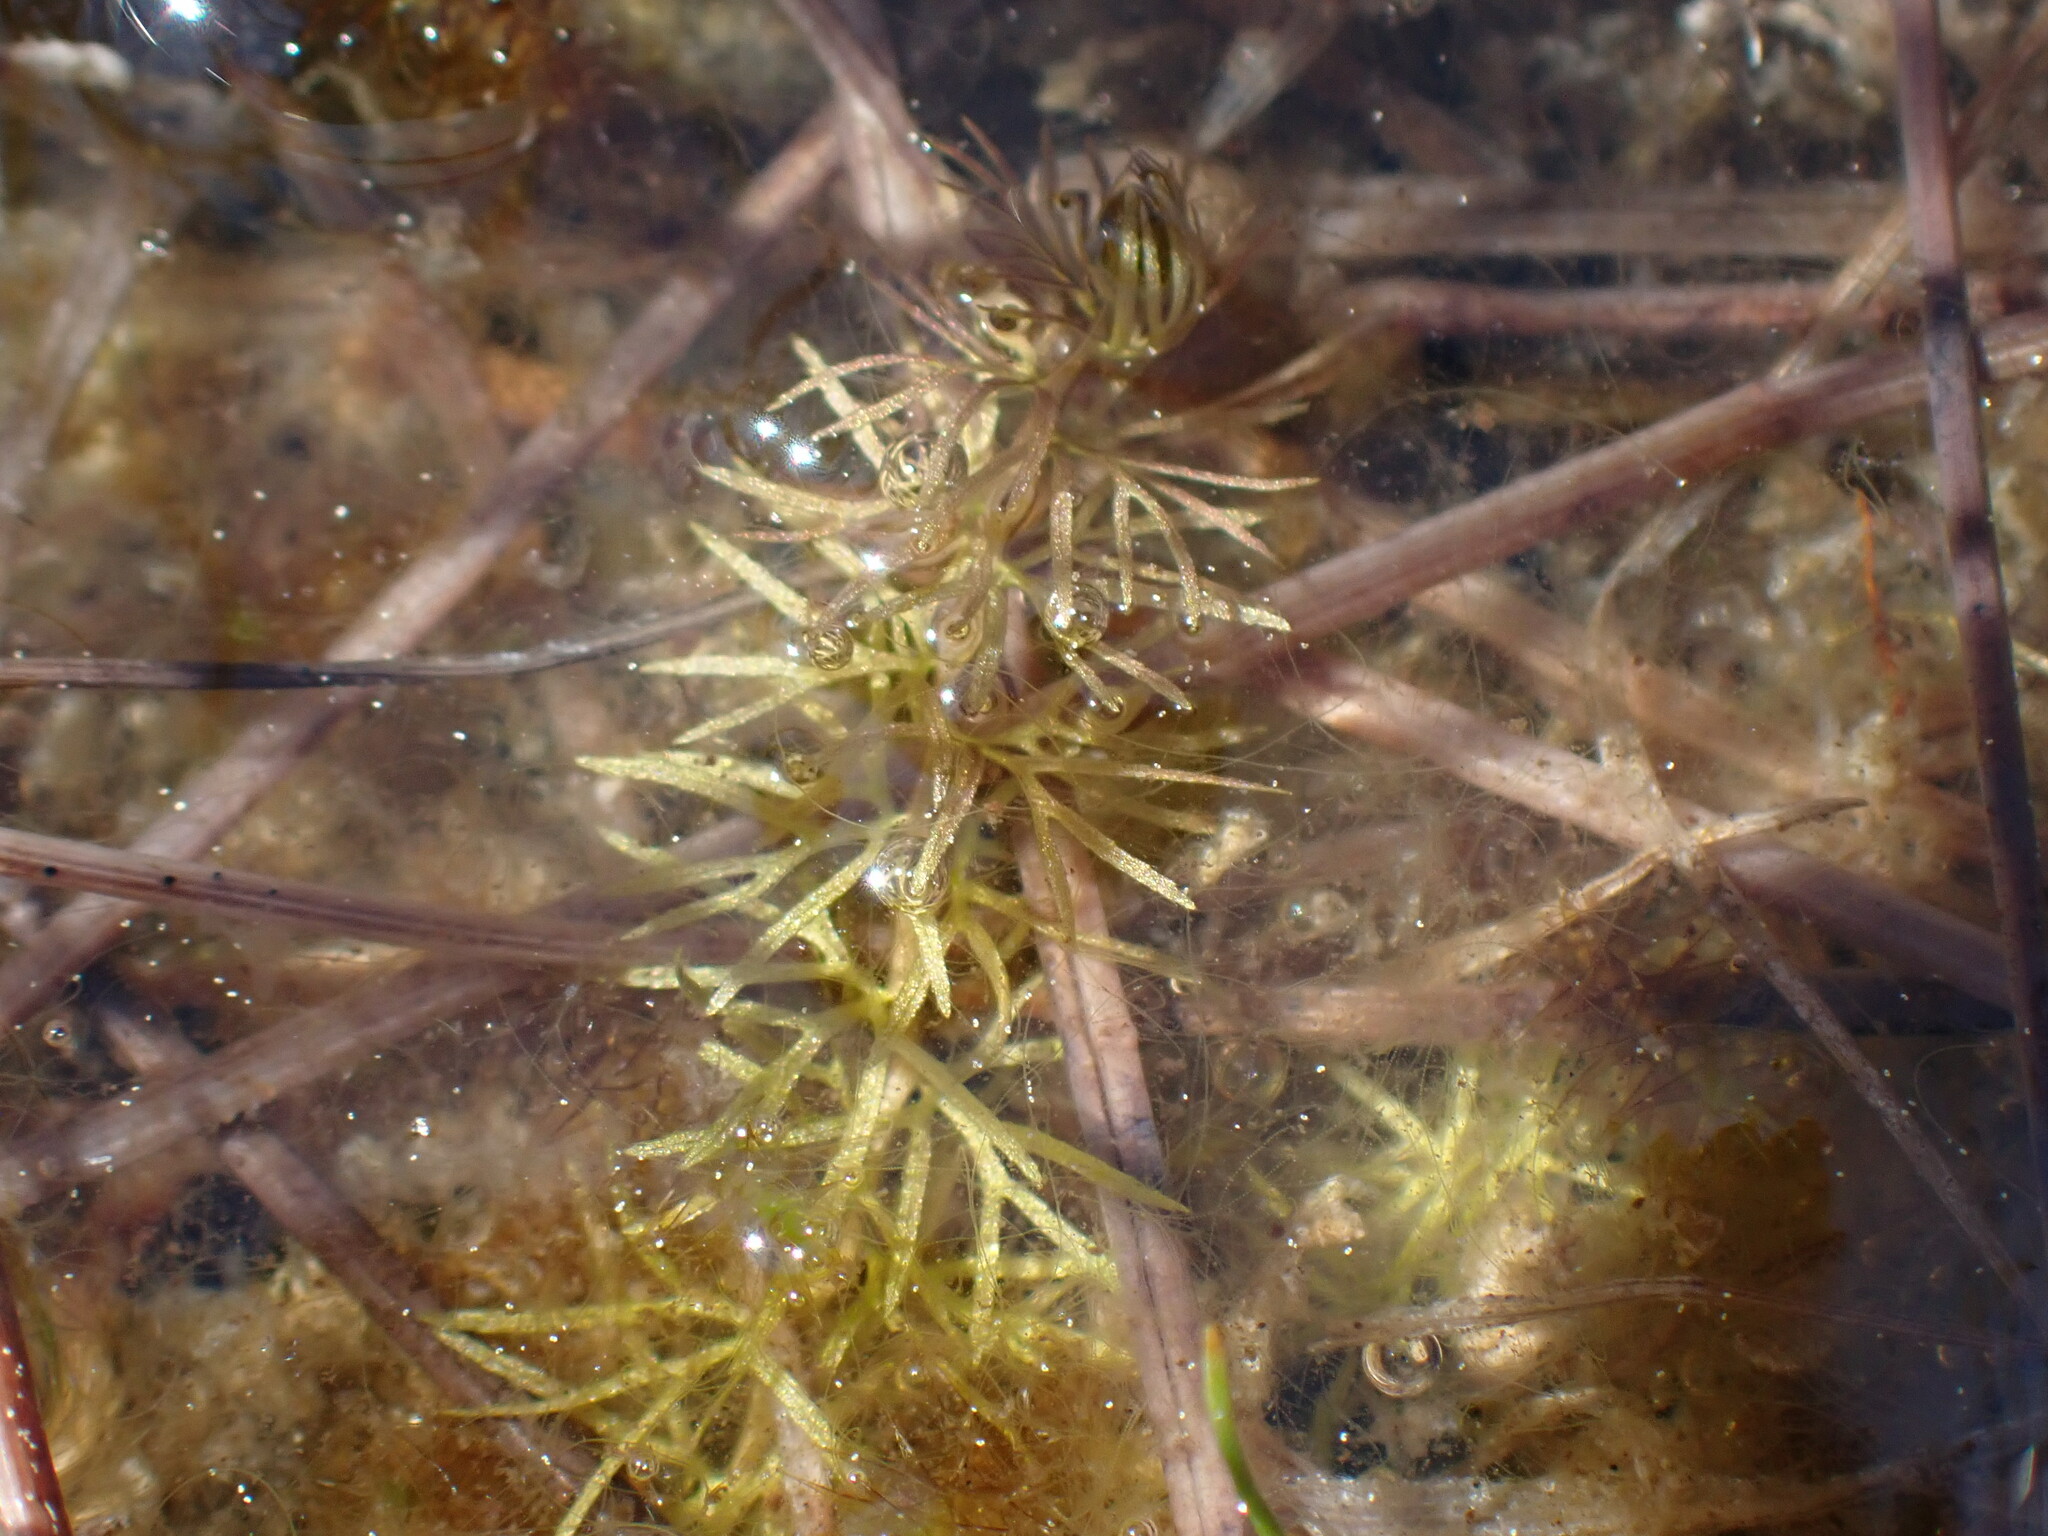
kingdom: Plantae
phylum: Tracheophyta
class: Magnoliopsida
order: Lamiales
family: Lentibulariaceae
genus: Utricularia
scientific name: Utricularia intermedia
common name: Intermediate bladderwort
